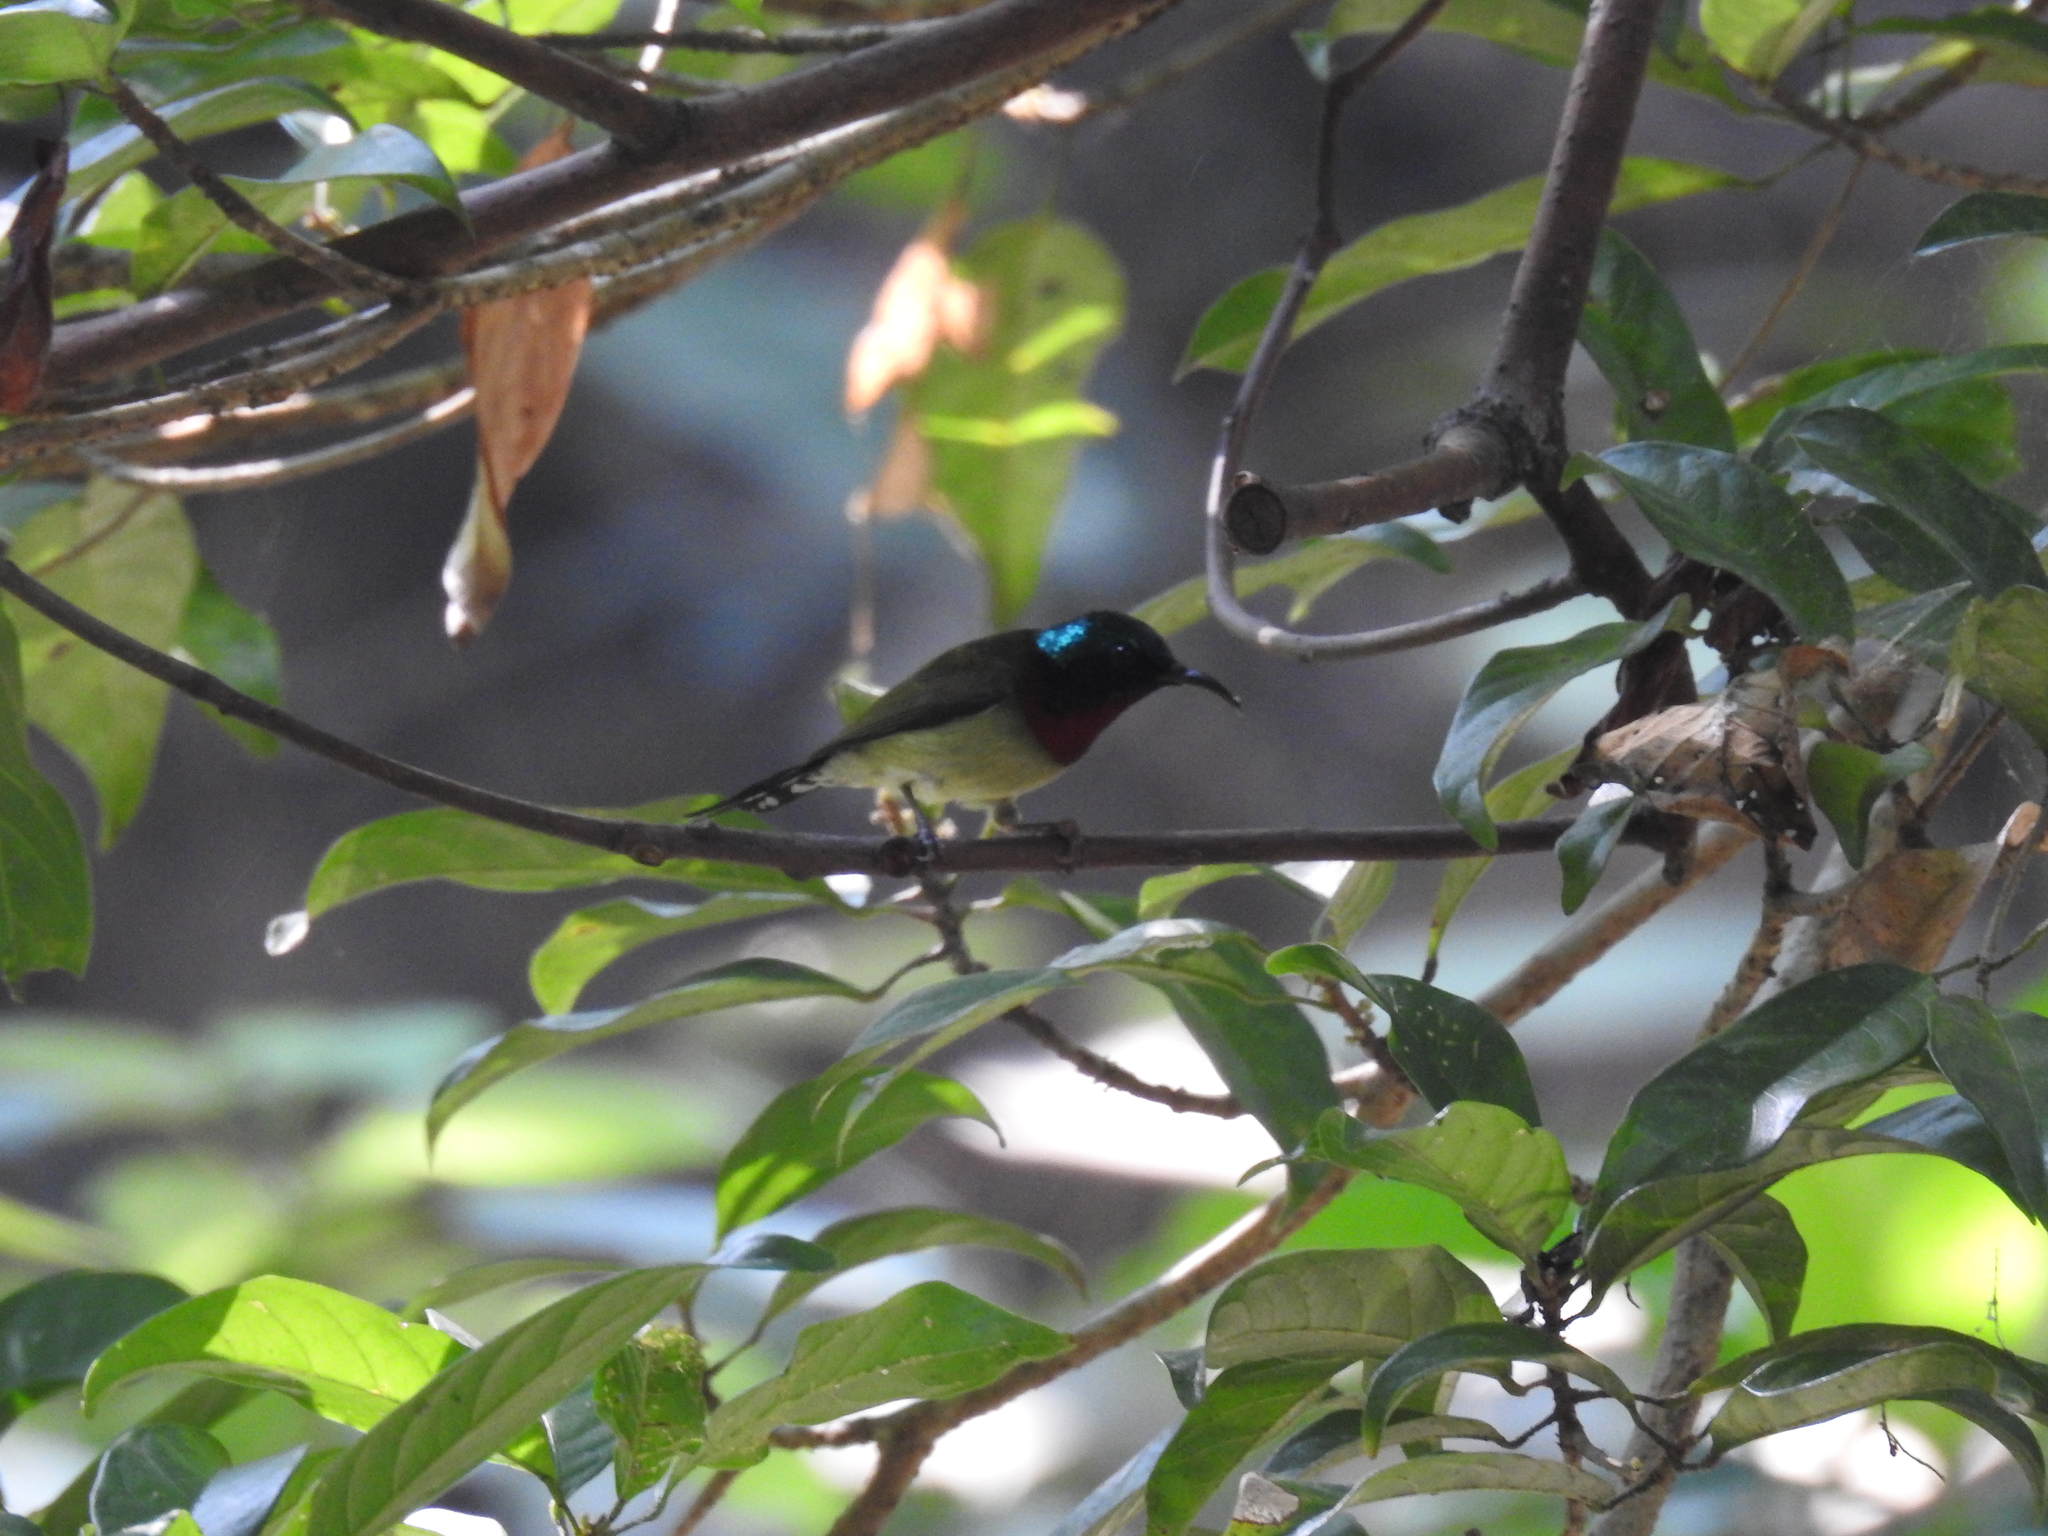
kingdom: Animalia
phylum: Chordata
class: Aves
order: Passeriformes
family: Nectariniidae
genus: Aethopyga
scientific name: Aethopyga christinae
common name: Fork-tailed sunbird
